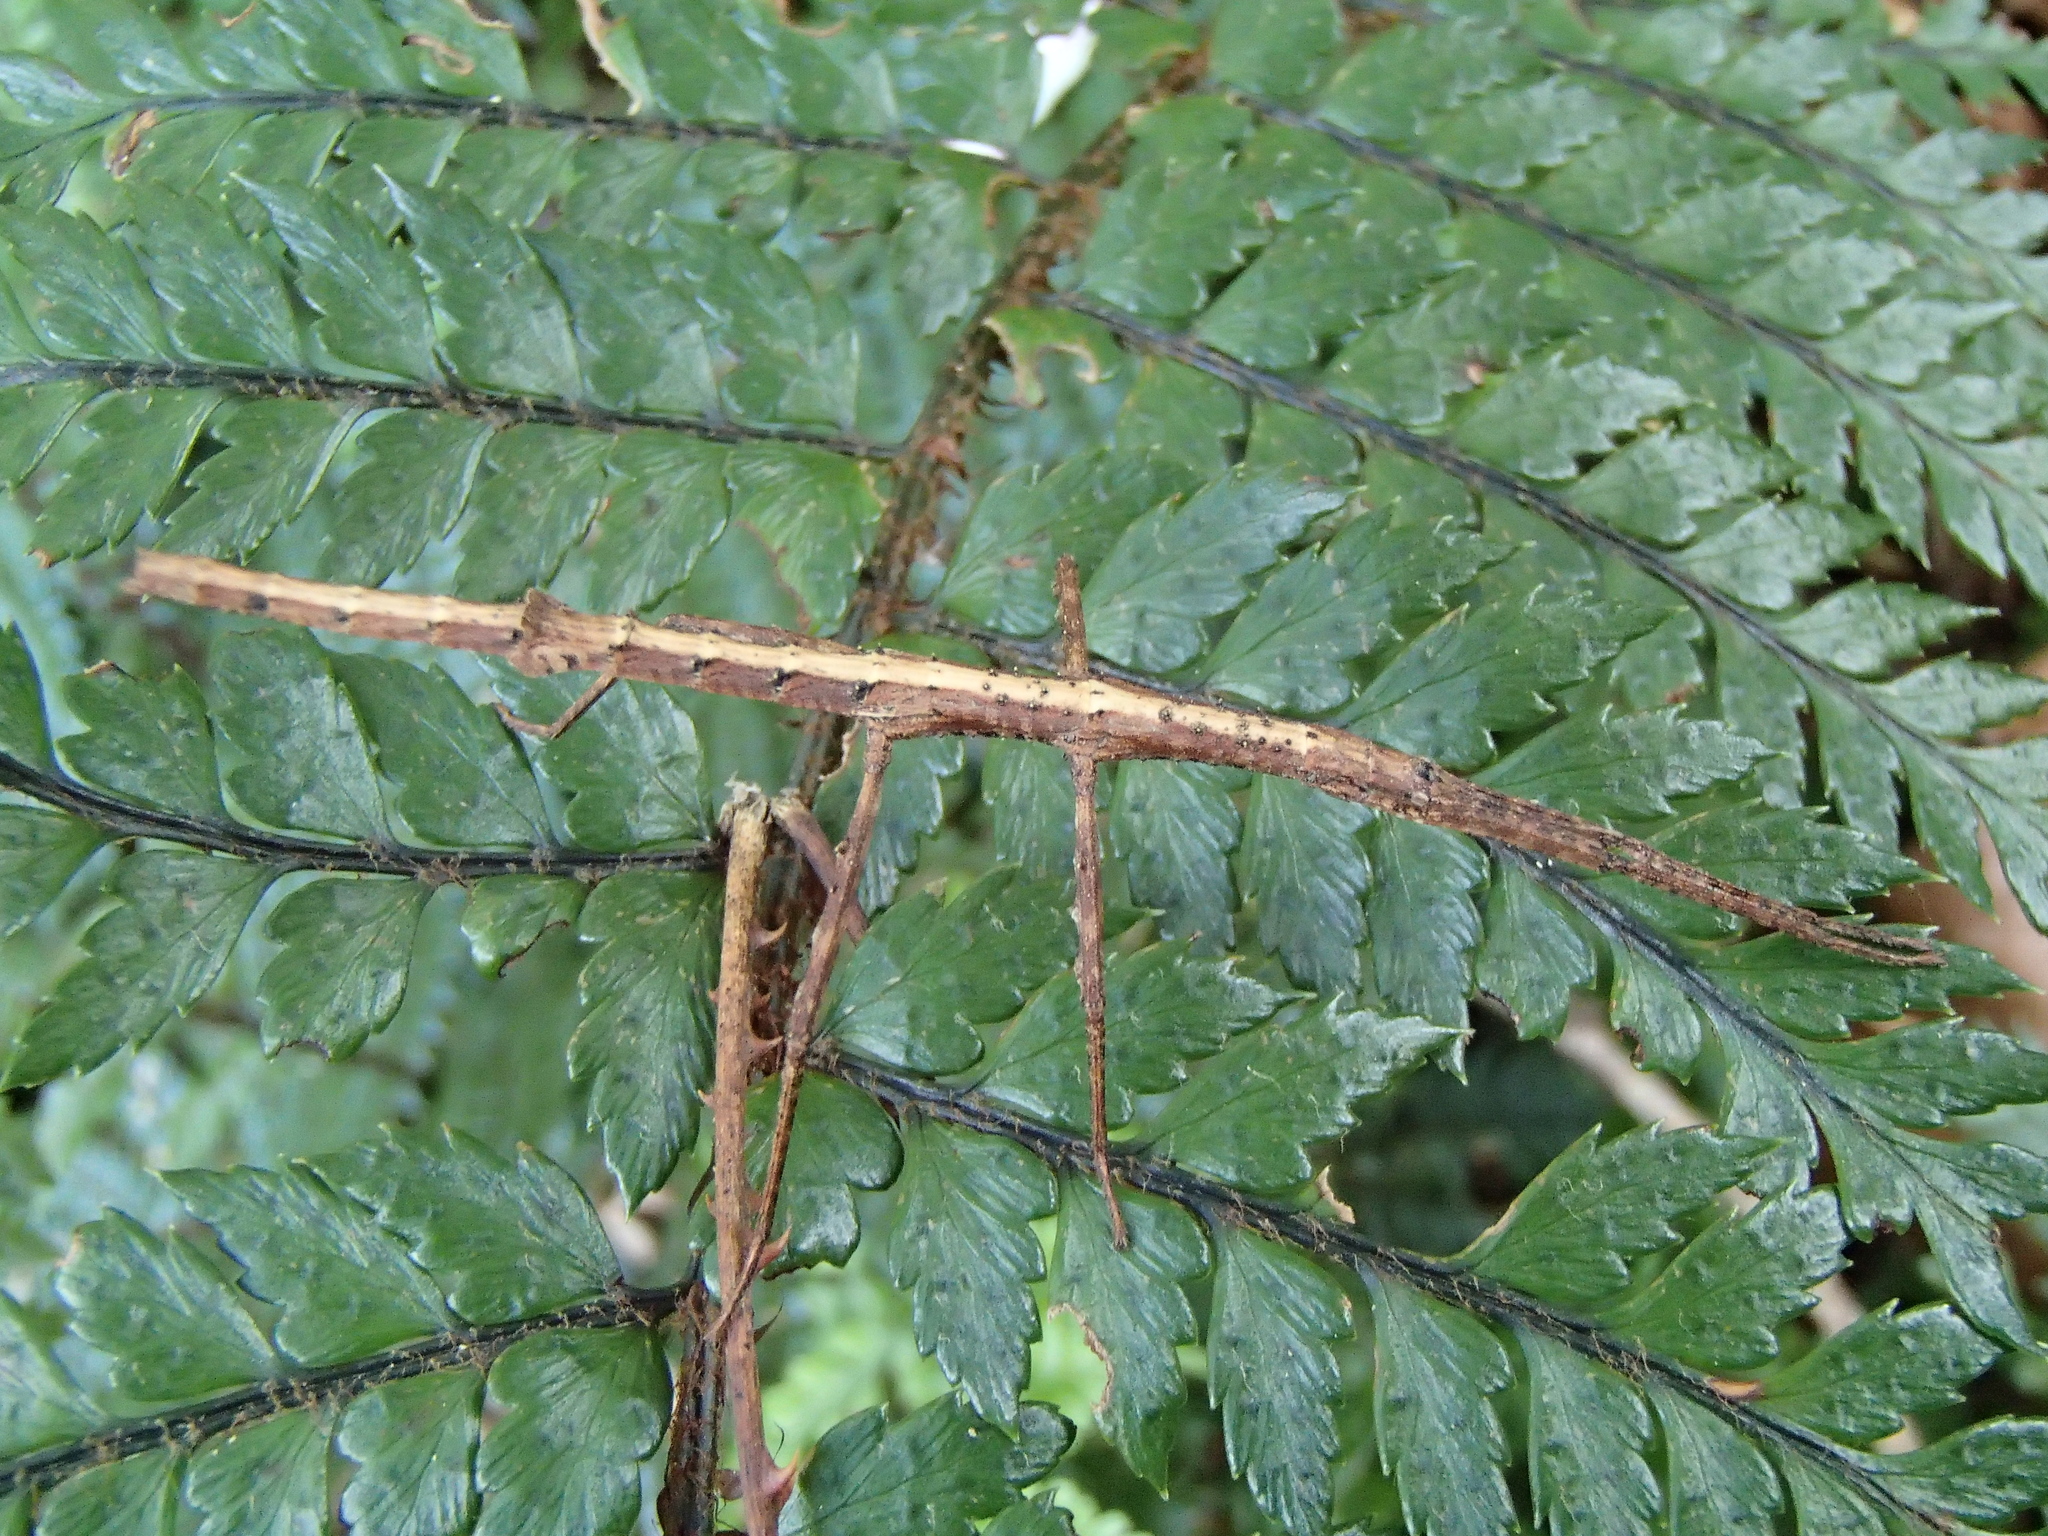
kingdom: Animalia
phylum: Arthropoda
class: Insecta
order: Phasmida
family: Phasmatidae
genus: Tectarchus
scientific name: Tectarchus salebrosus
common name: Lesser rough-skinned stick insect
